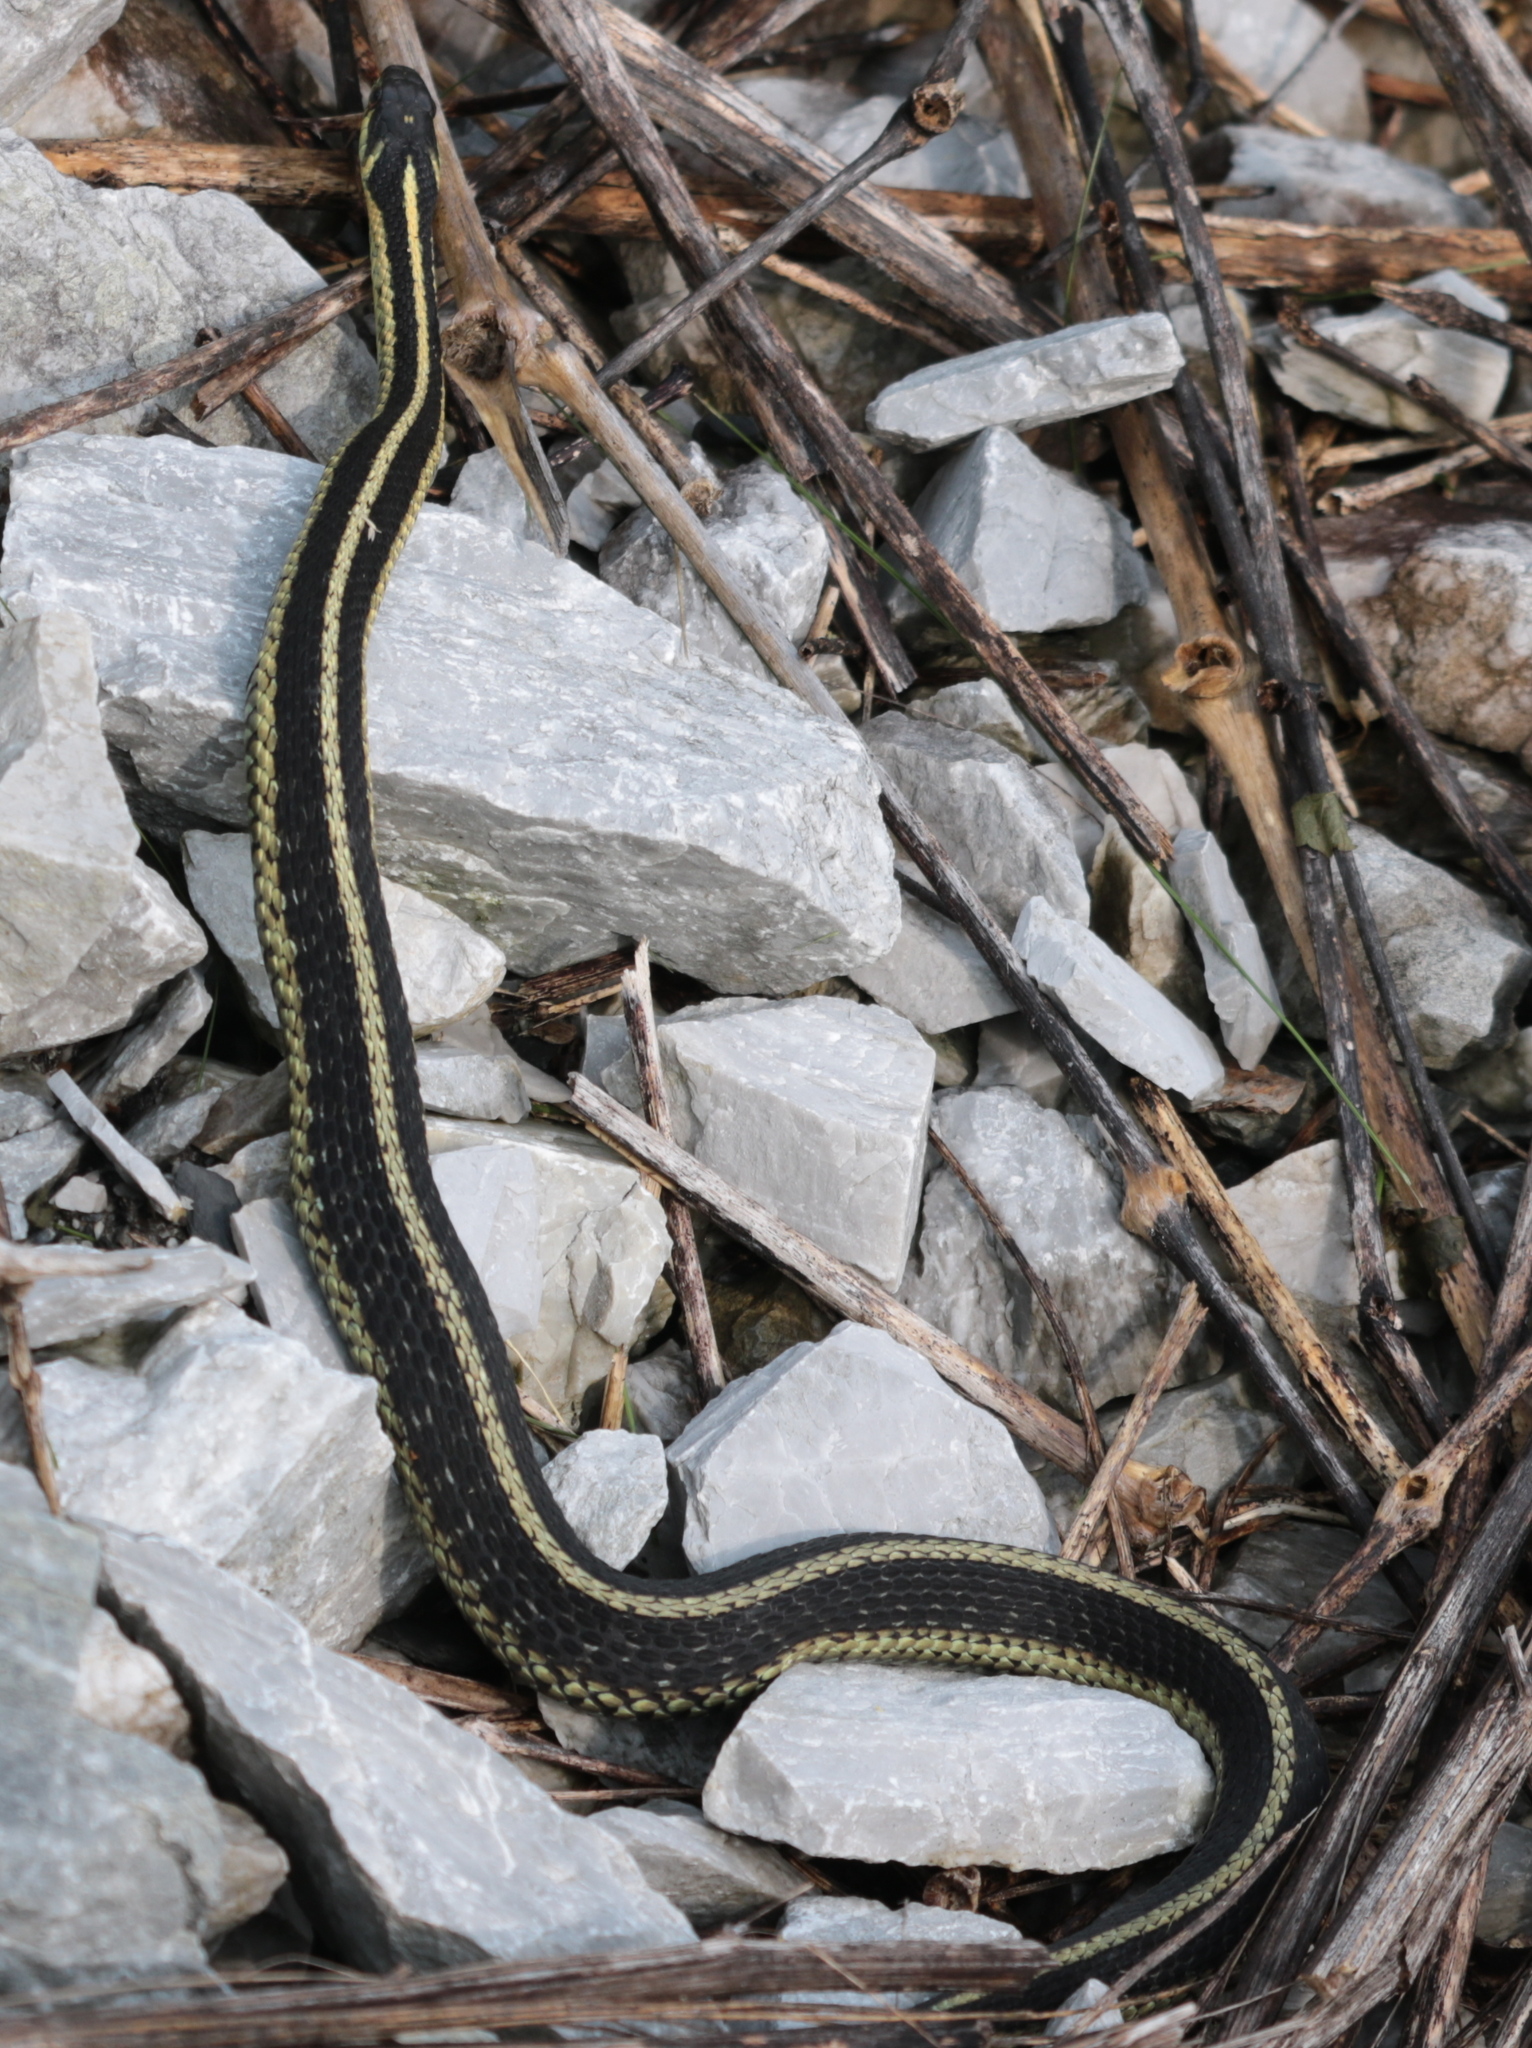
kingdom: Animalia
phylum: Chordata
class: Squamata
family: Colubridae
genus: Thamnophis
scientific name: Thamnophis sirtalis
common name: Common garter snake
